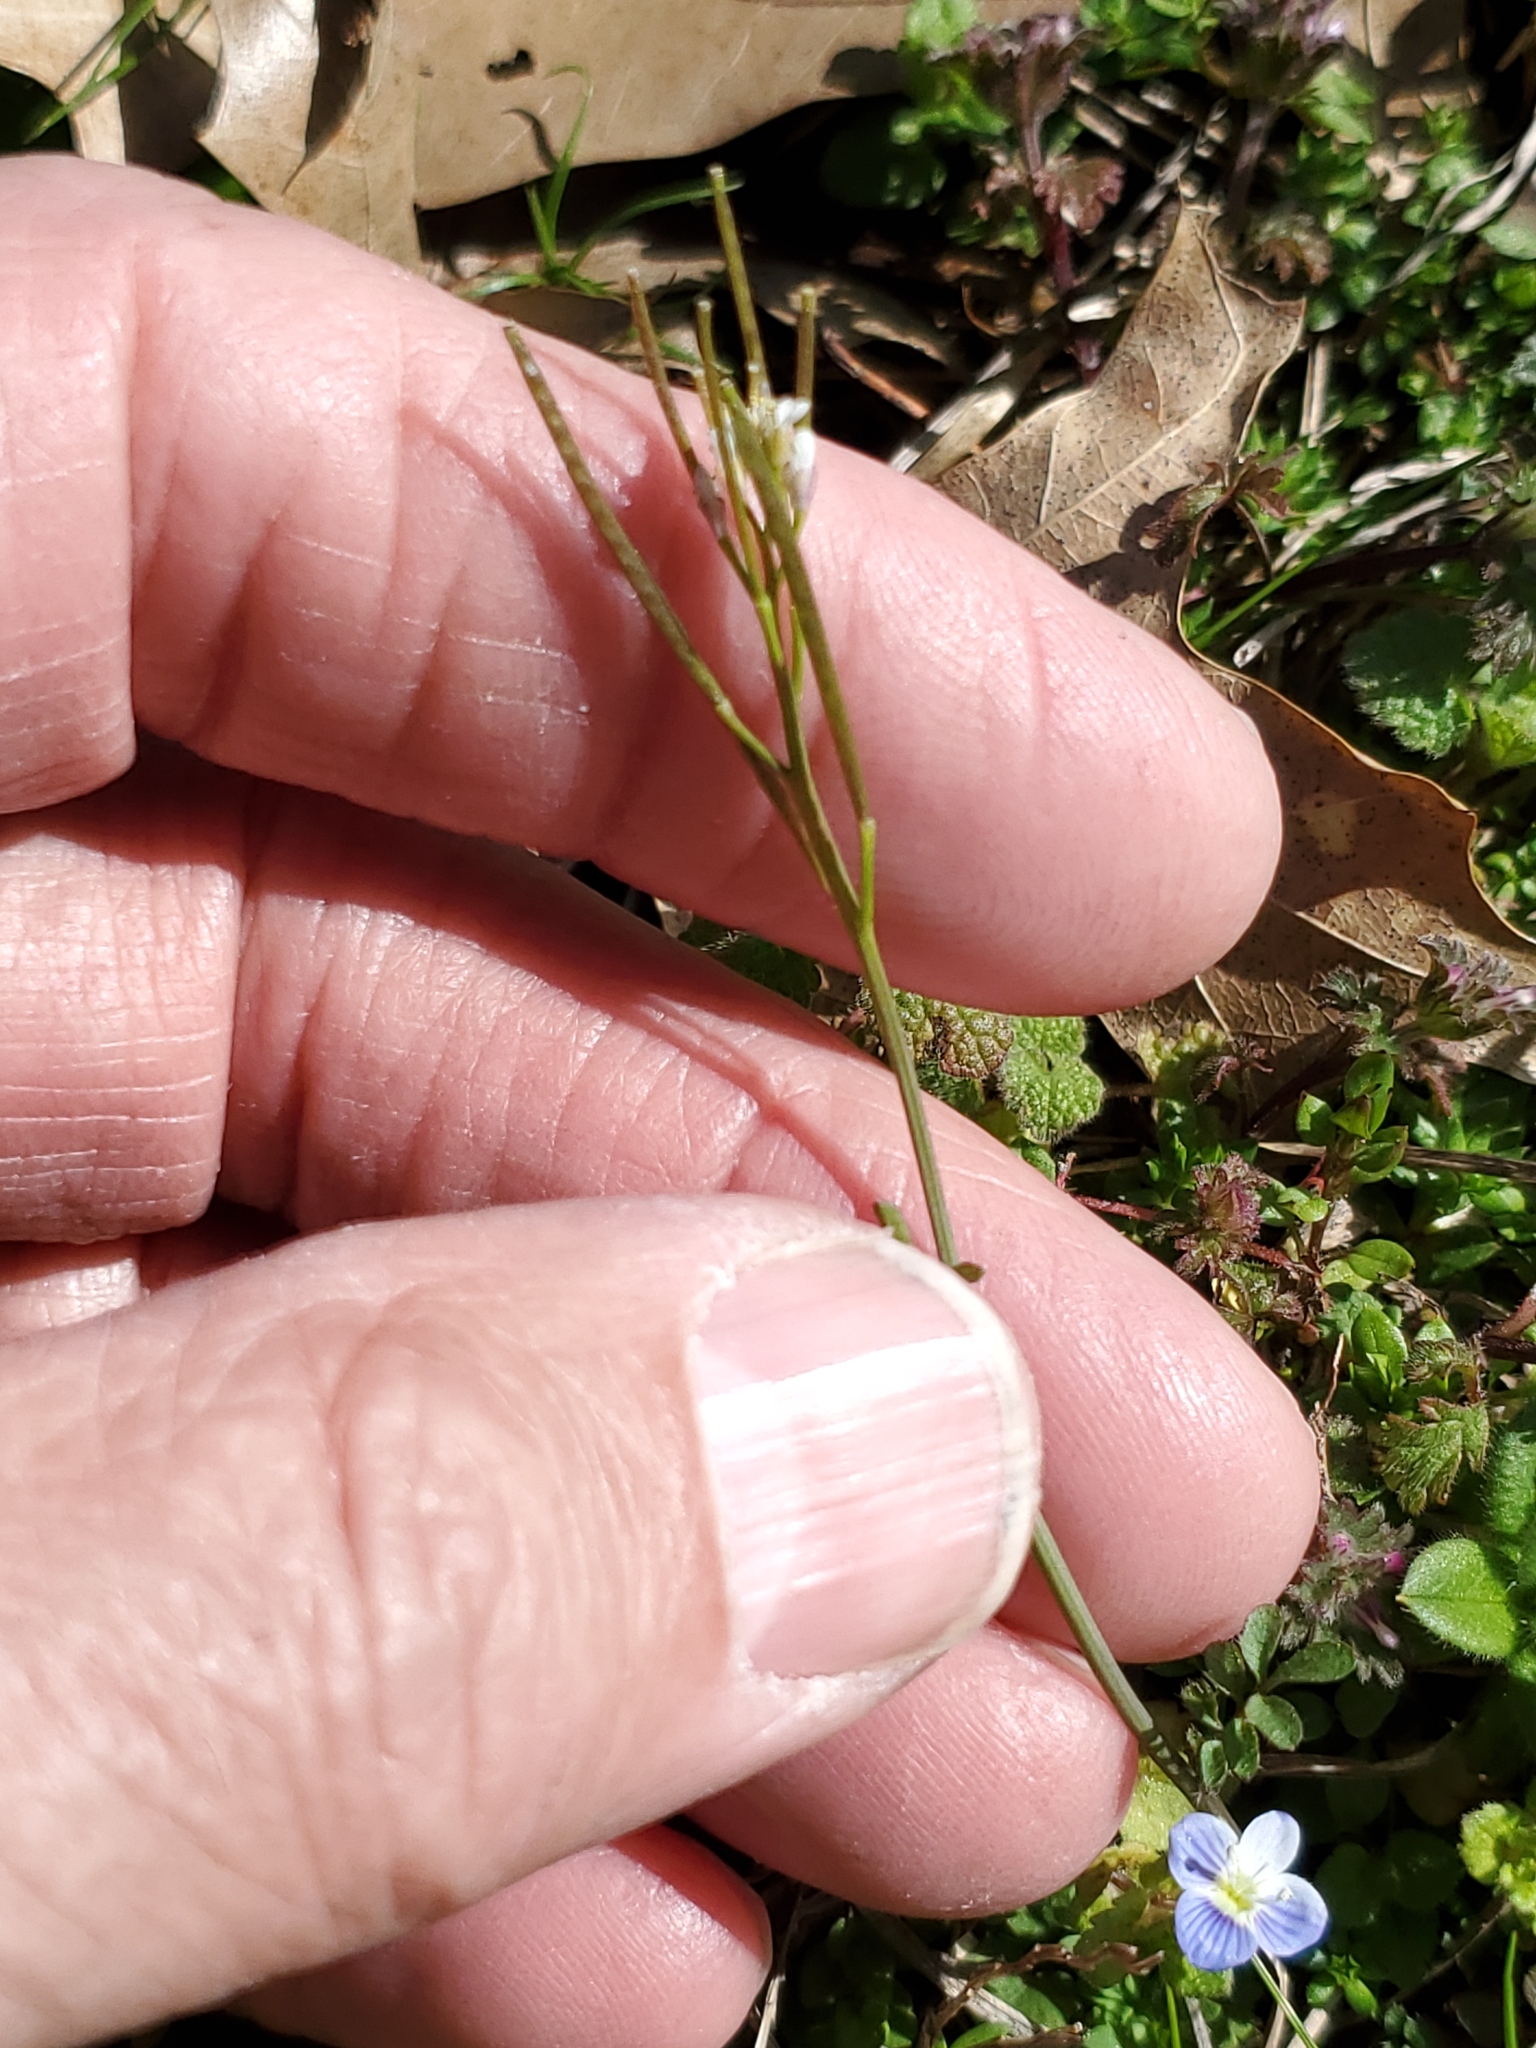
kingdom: Plantae
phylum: Tracheophyta
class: Magnoliopsida
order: Brassicales
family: Brassicaceae
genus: Cardamine
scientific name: Cardamine hirsuta
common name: Hairy bittercress
